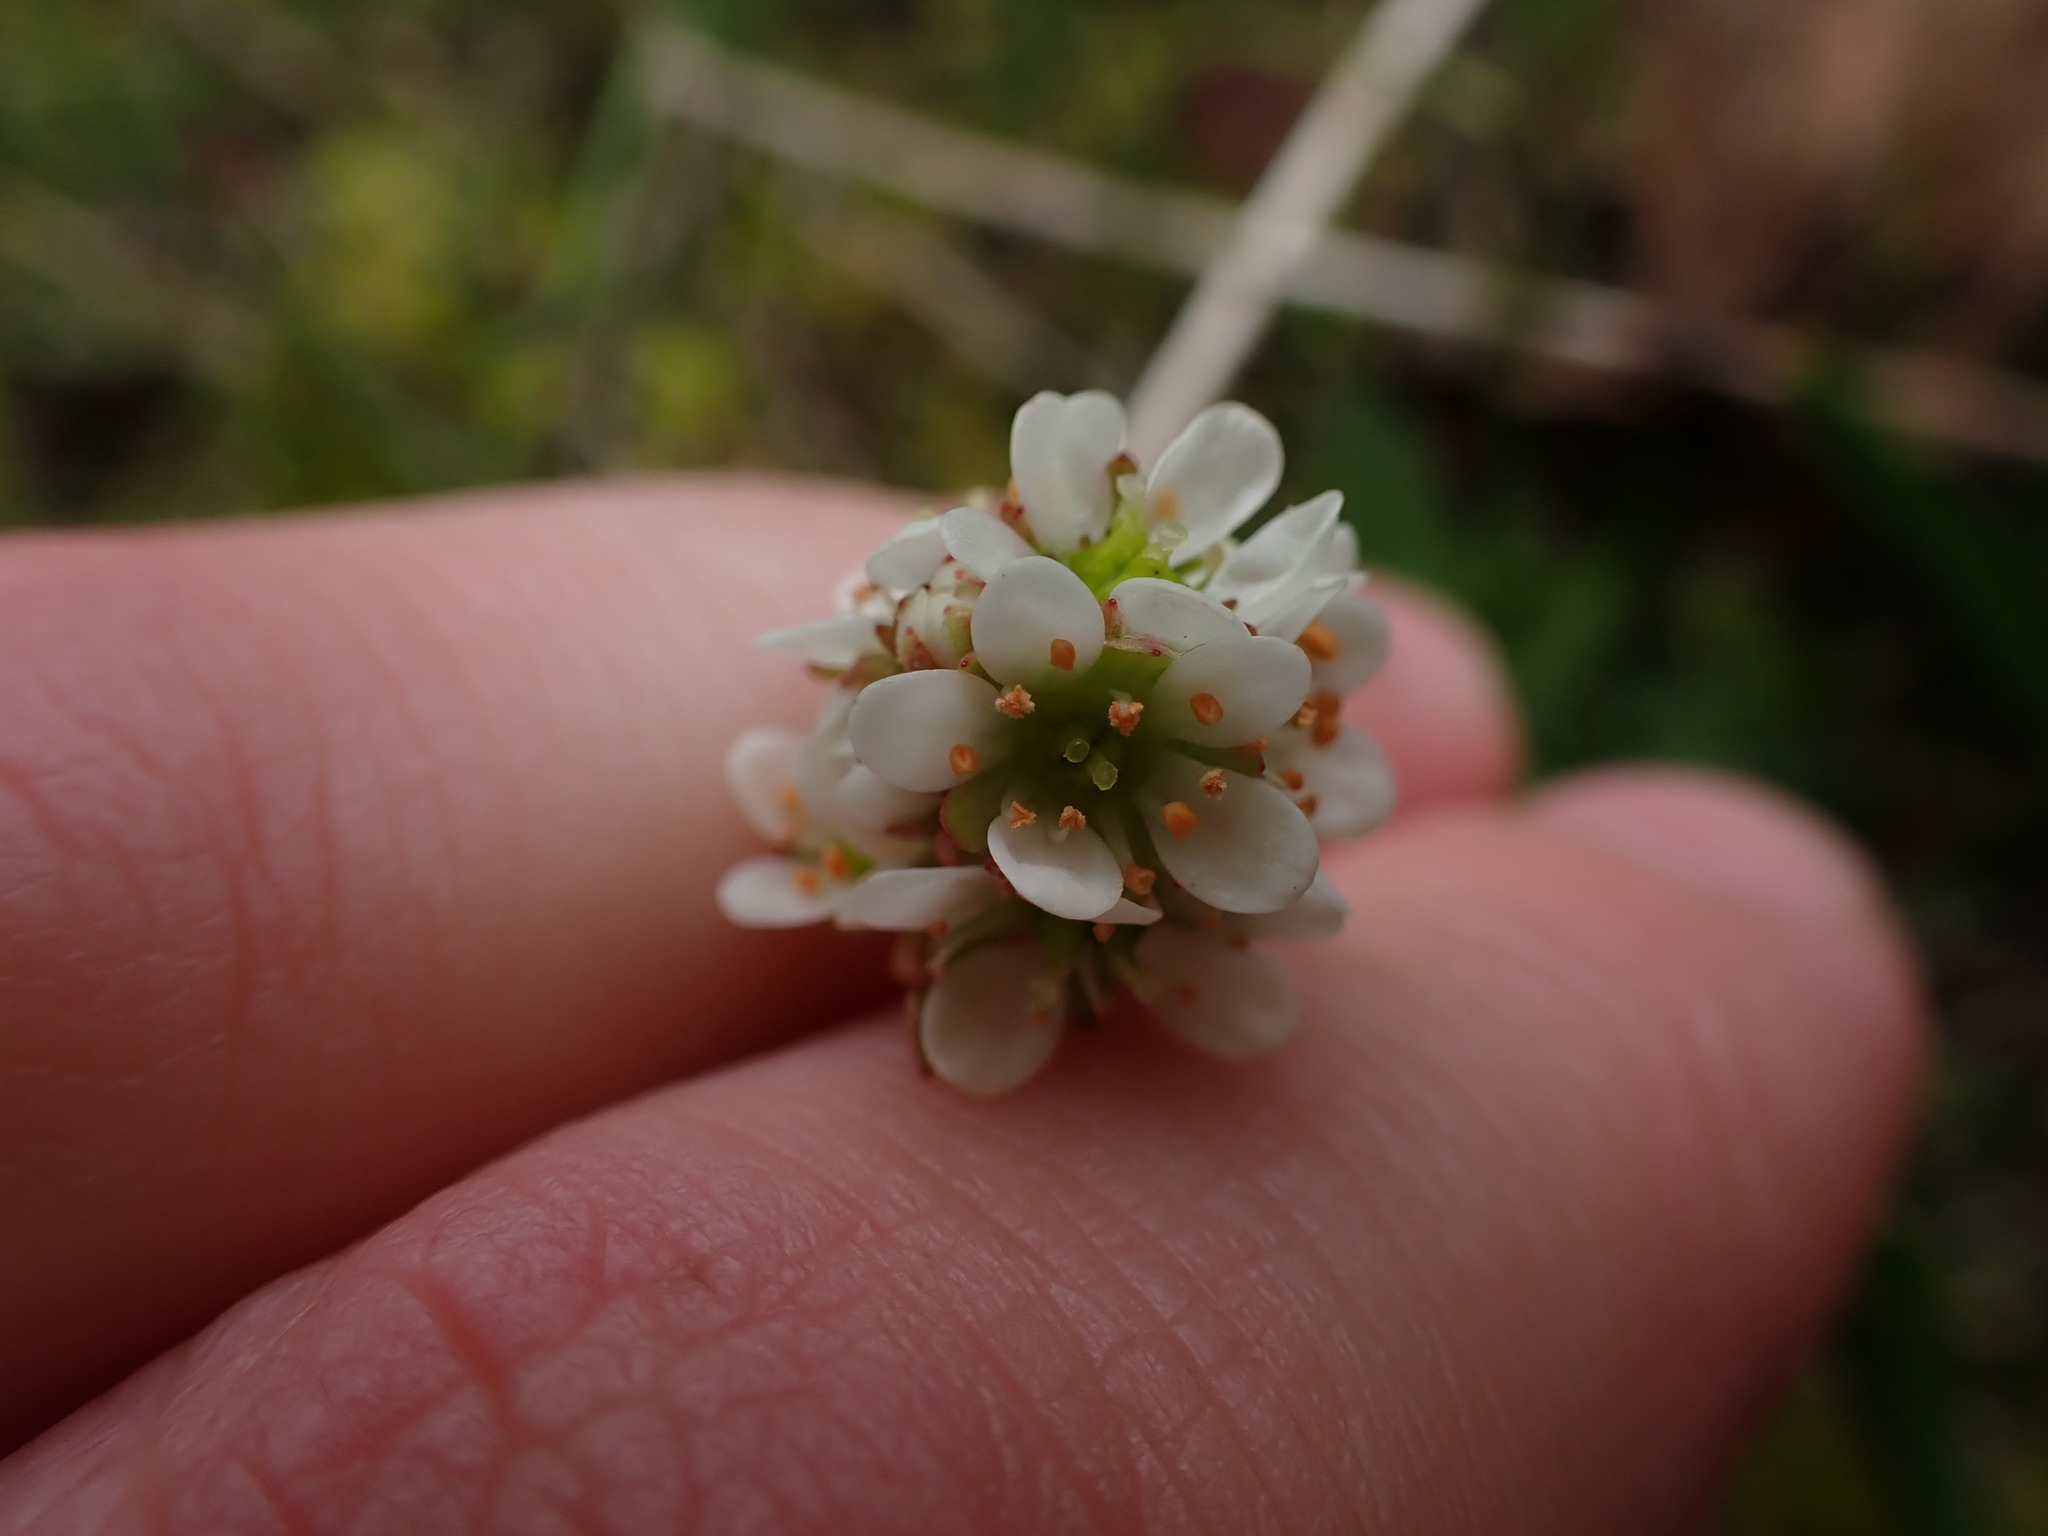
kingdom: Plantae
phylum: Tracheophyta
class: Magnoliopsida
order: Saxifragales
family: Saxifragaceae
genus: Micranthes
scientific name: Micranthes integrifolia
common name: Wholeleaf saxifrage
